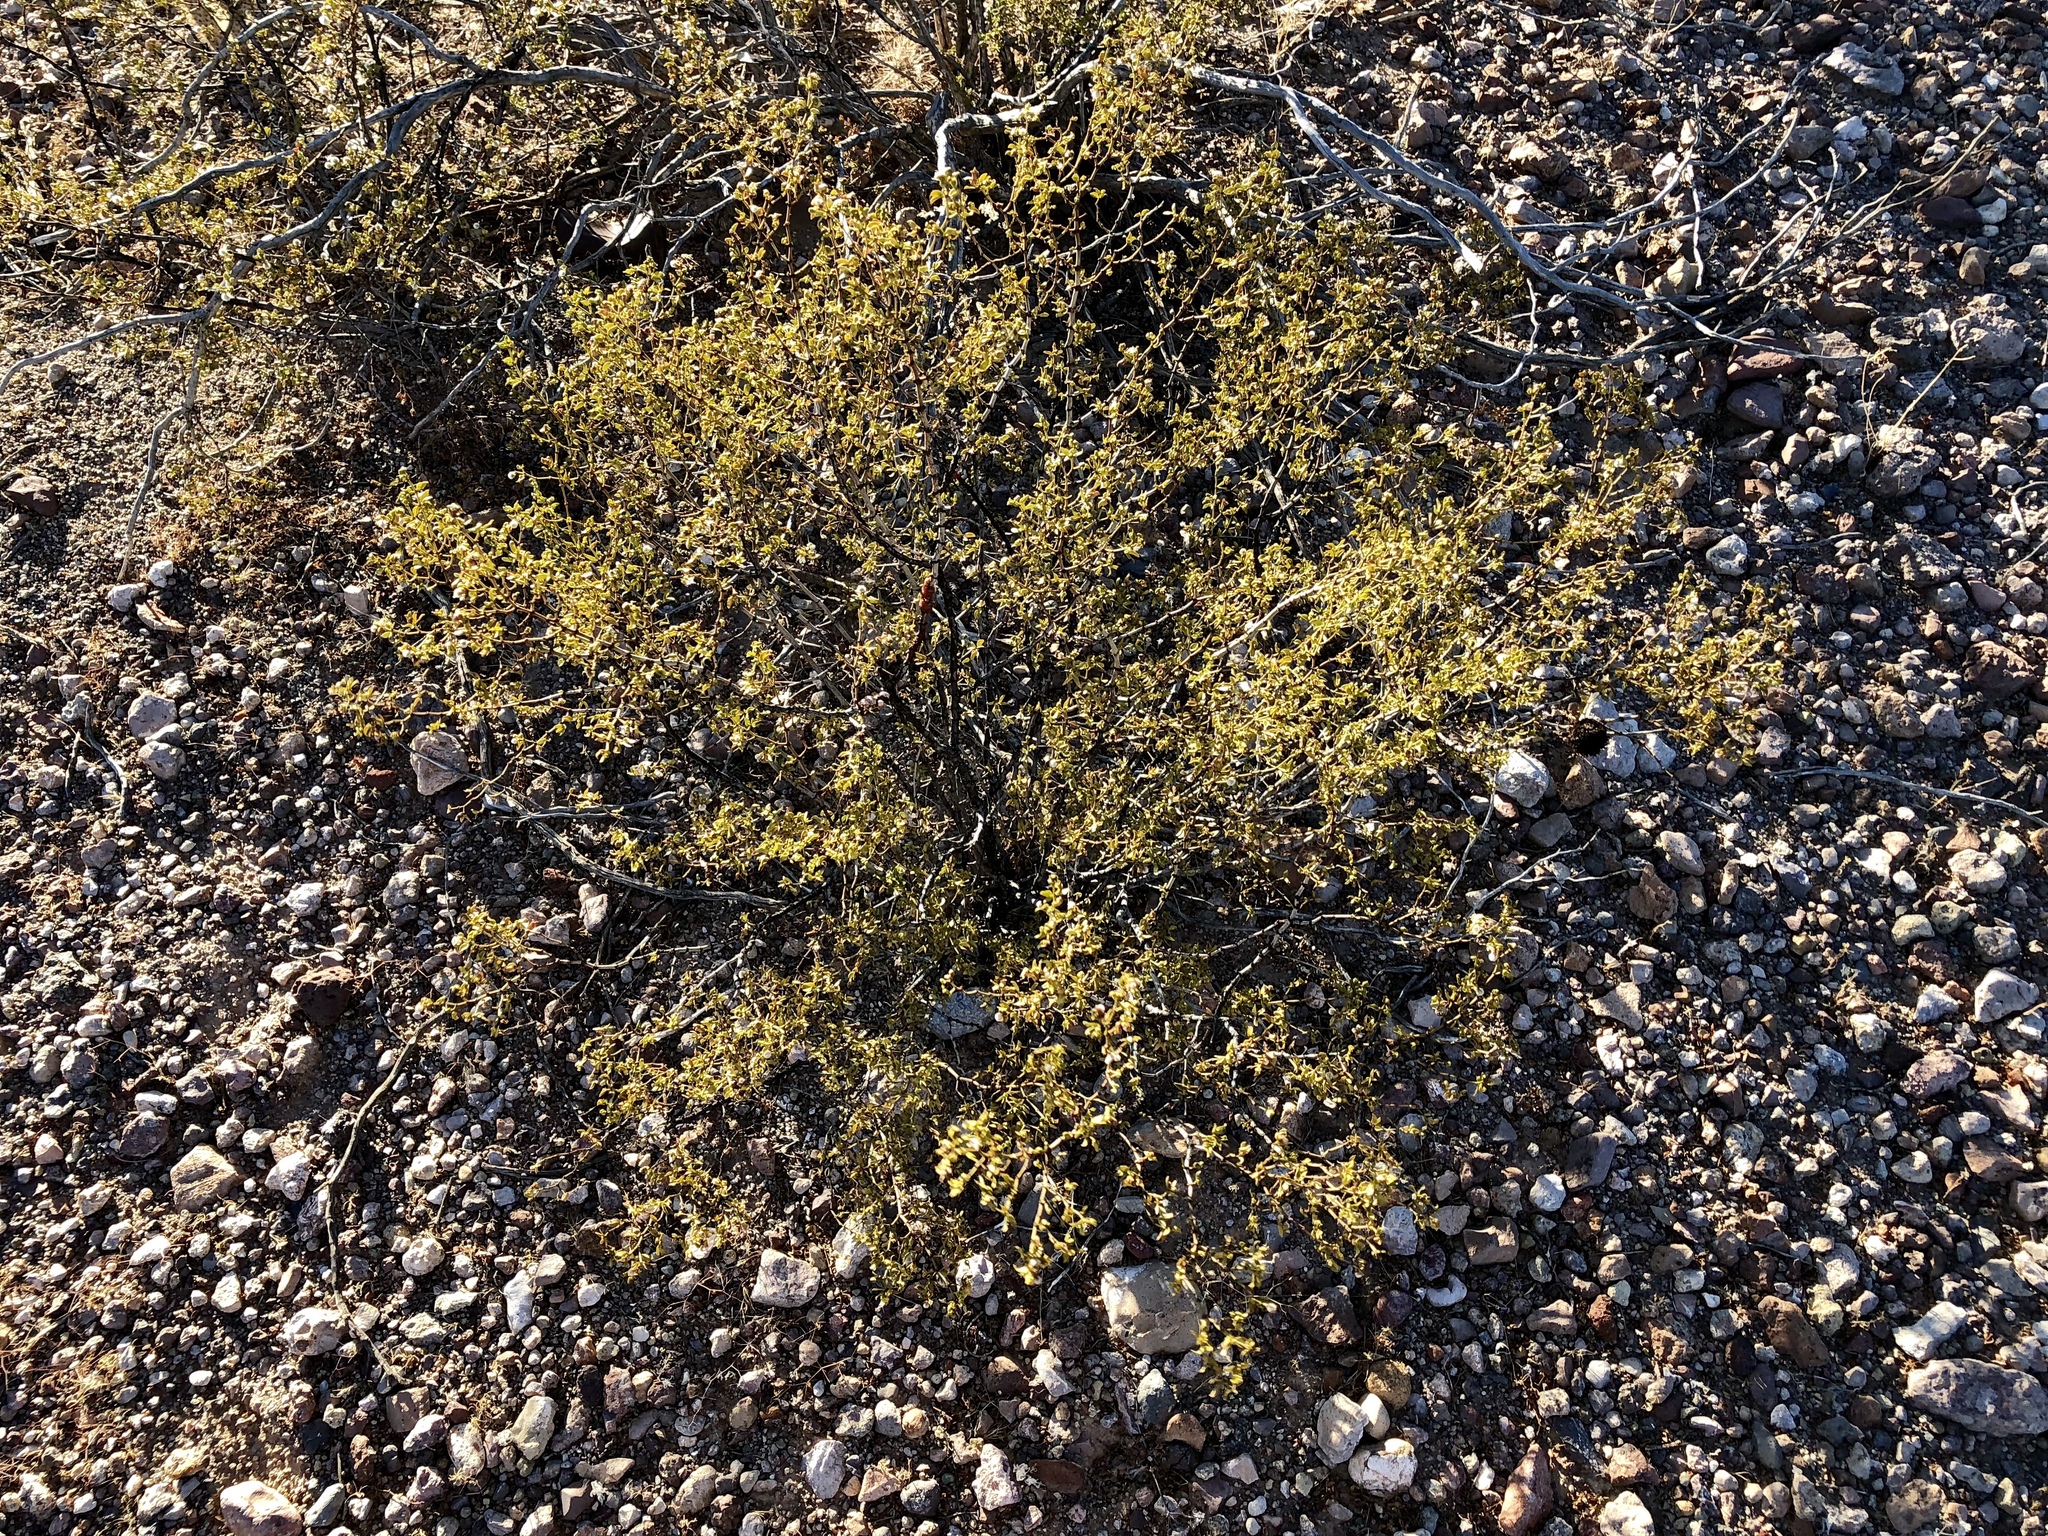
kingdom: Plantae
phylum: Tracheophyta
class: Magnoliopsida
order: Zygophyllales
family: Zygophyllaceae
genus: Larrea
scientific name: Larrea tridentata
